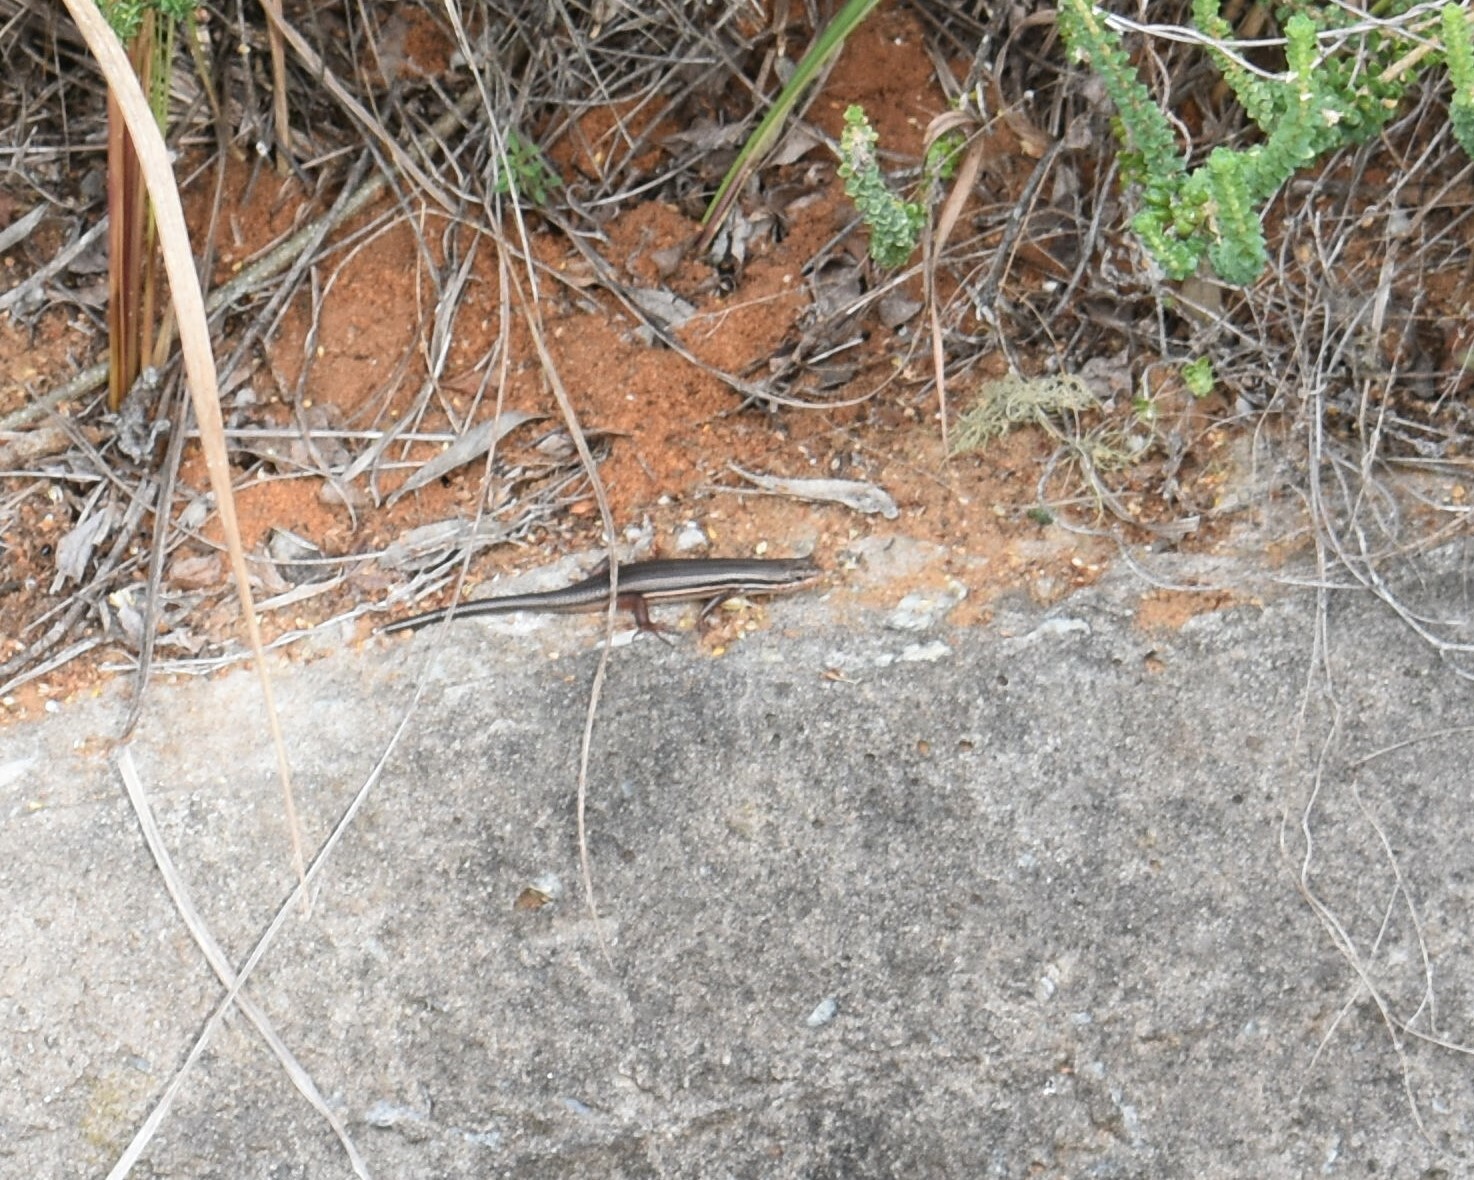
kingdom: Animalia
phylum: Chordata
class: Squamata
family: Scincidae
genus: Trachylepis
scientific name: Trachylepis homalocephala
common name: Red-sided skink
